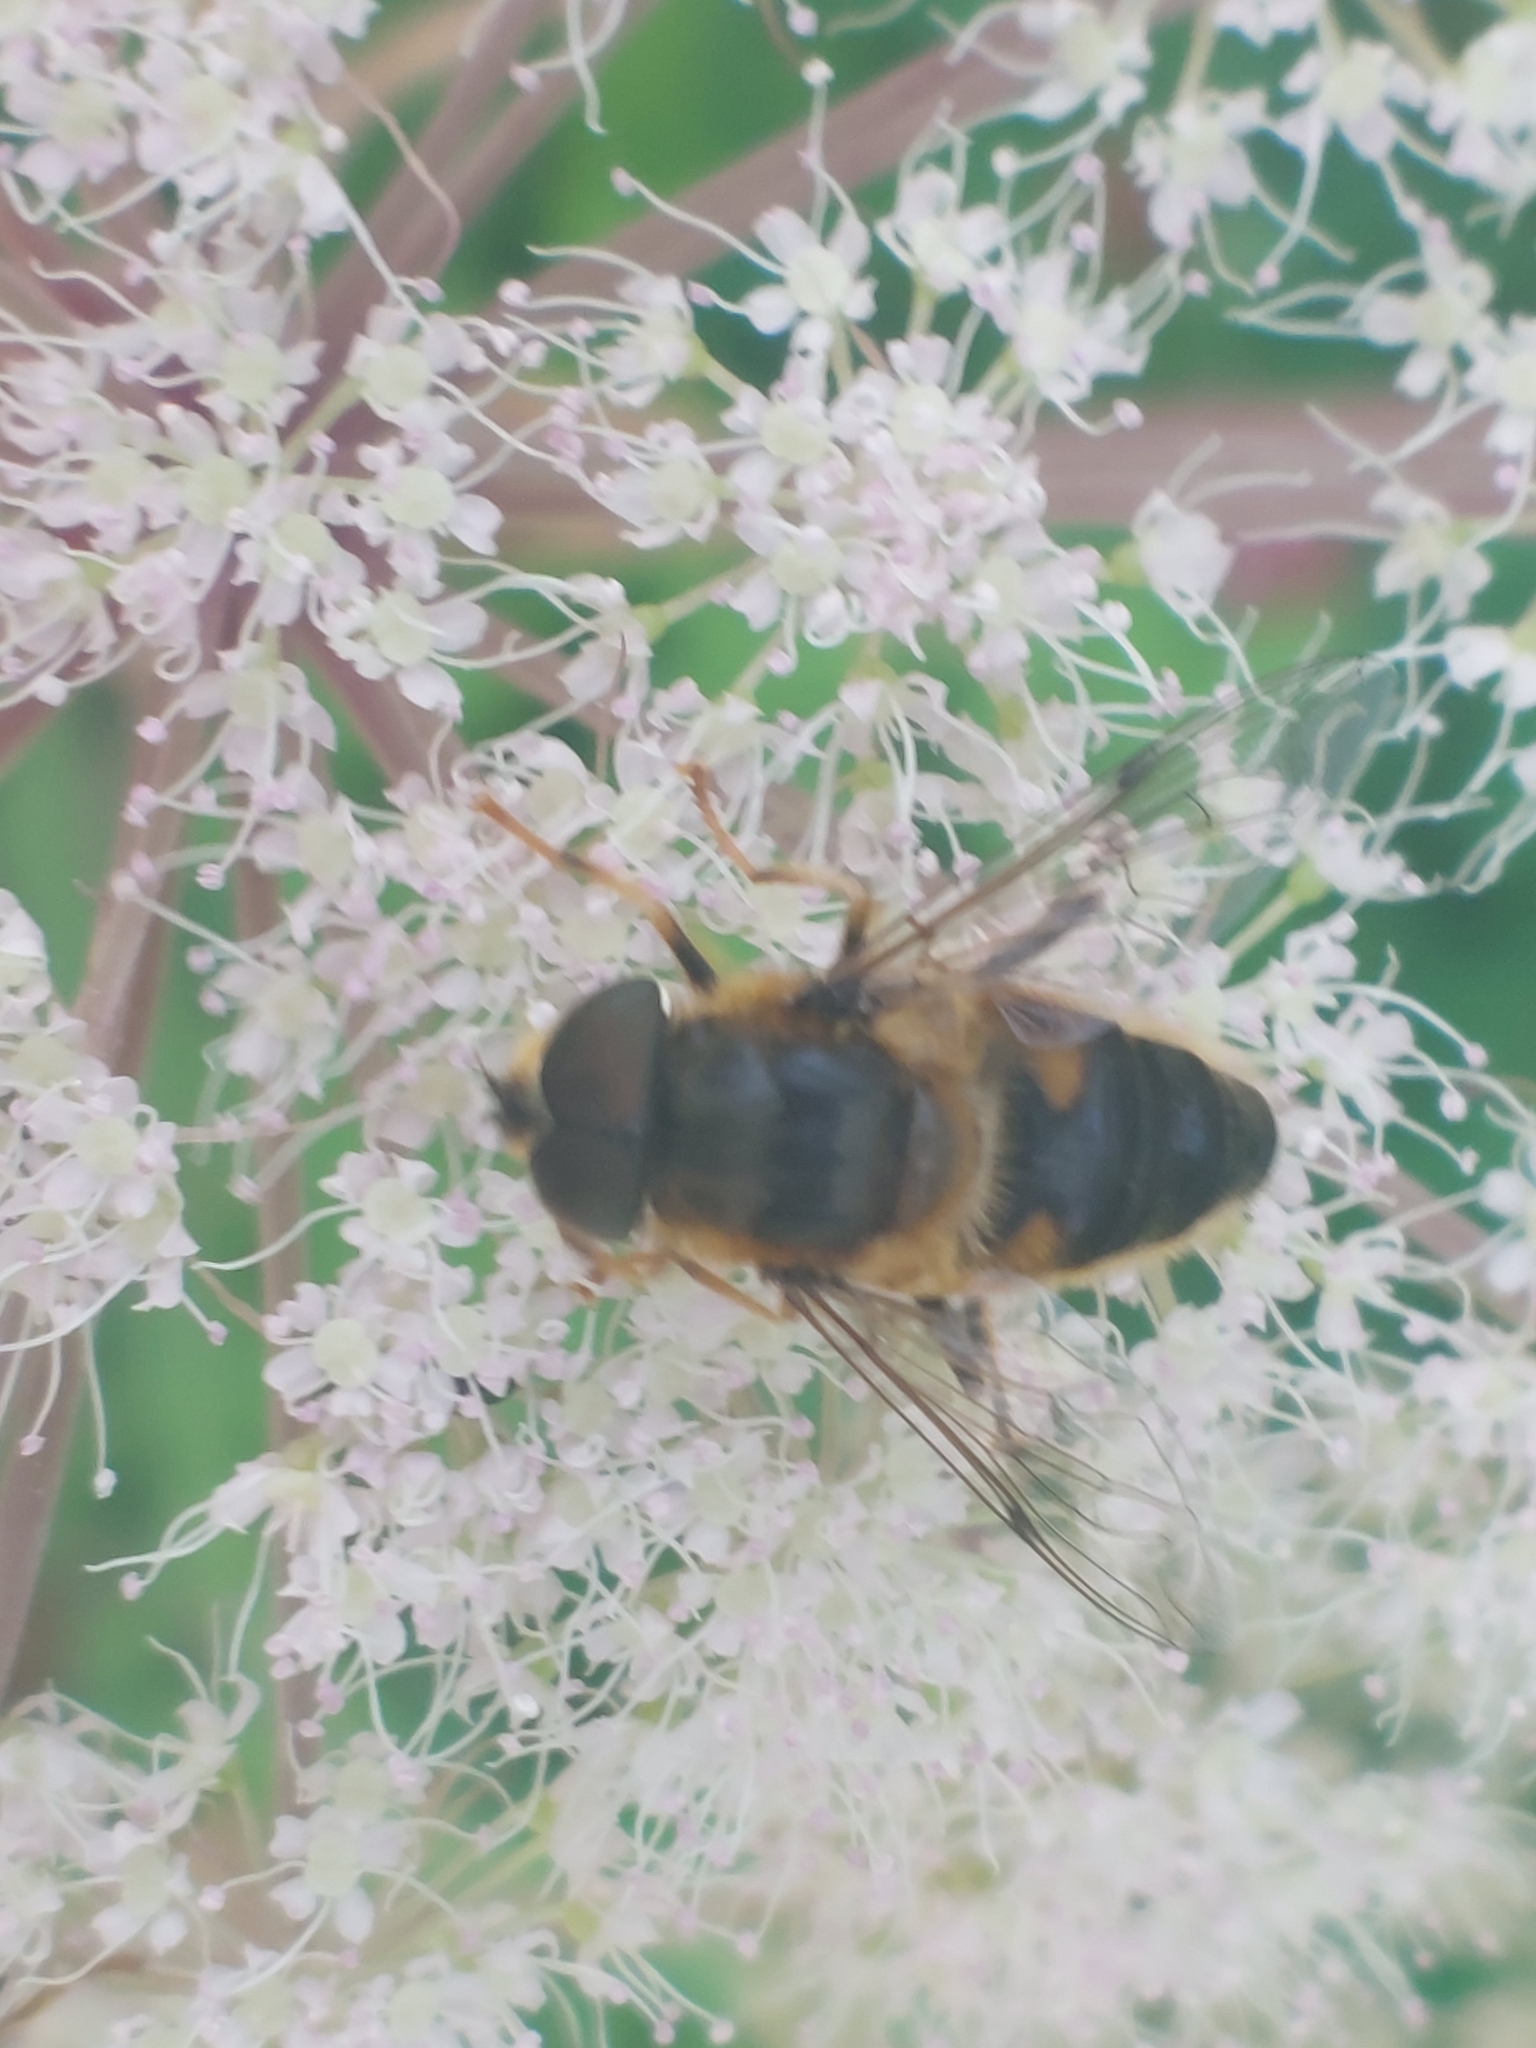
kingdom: Animalia
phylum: Arthropoda
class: Insecta
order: Diptera
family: Syrphidae
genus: Eristalis
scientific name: Eristalis pertinax
